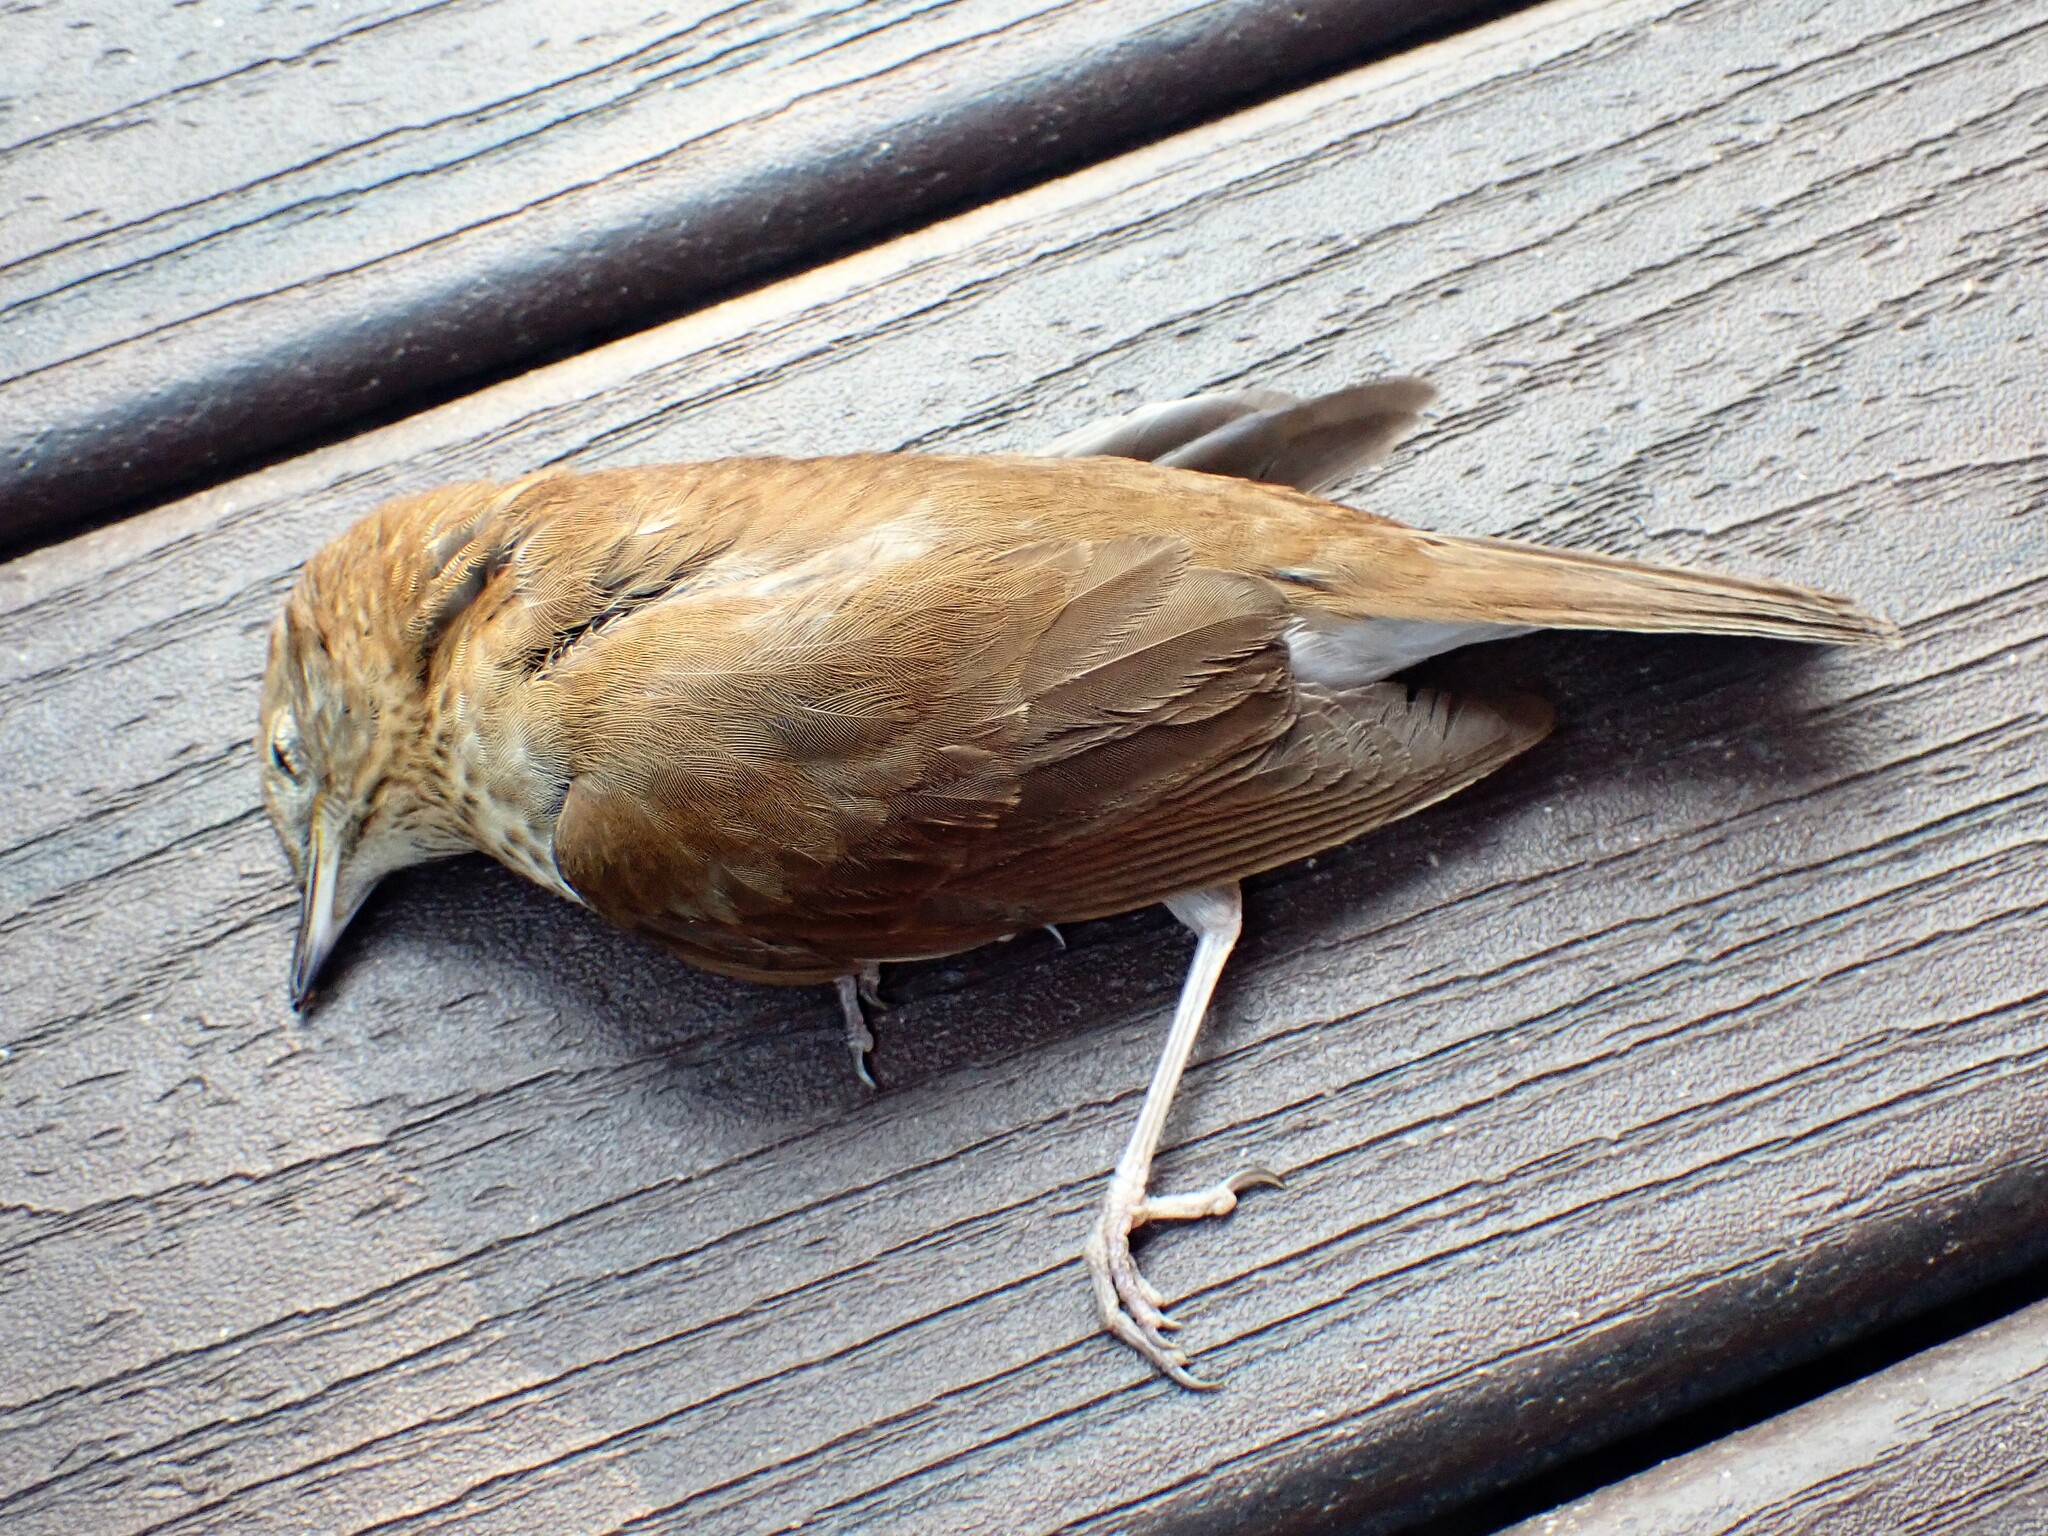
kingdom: Animalia
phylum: Chordata
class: Aves
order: Passeriformes
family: Turdidae
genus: Catharus
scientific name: Catharus fuscescens
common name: Veery
